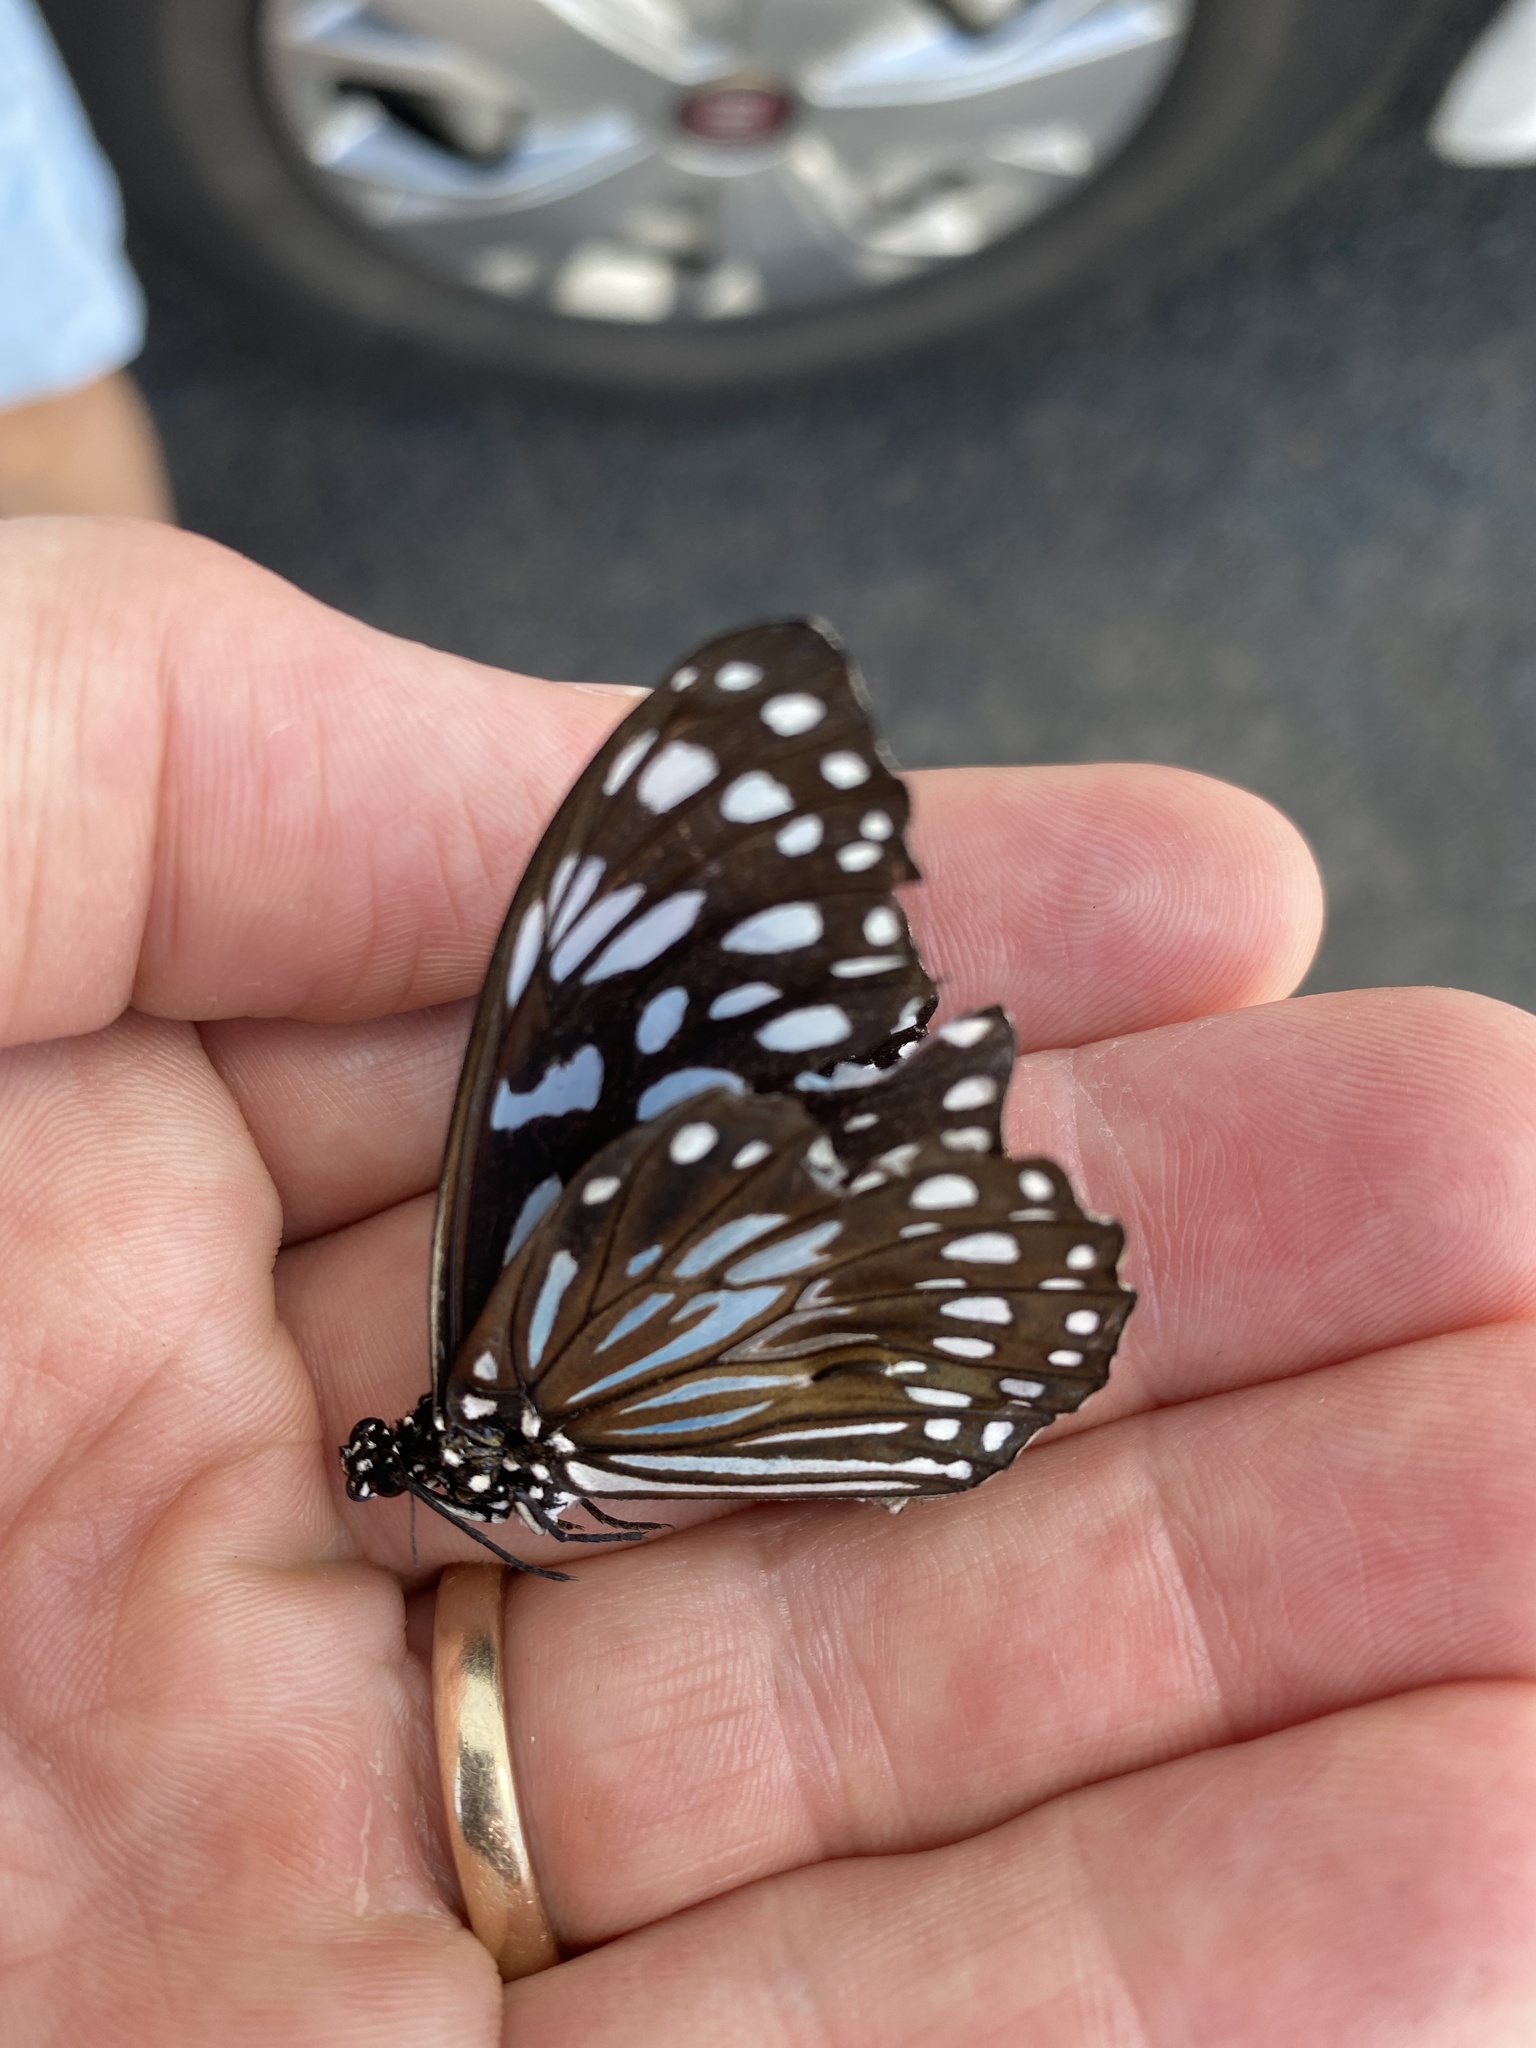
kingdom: Animalia
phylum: Arthropoda
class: Insecta
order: Lepidoptera
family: Nymphalidae
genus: Tirumala
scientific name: Tirumala hamata
